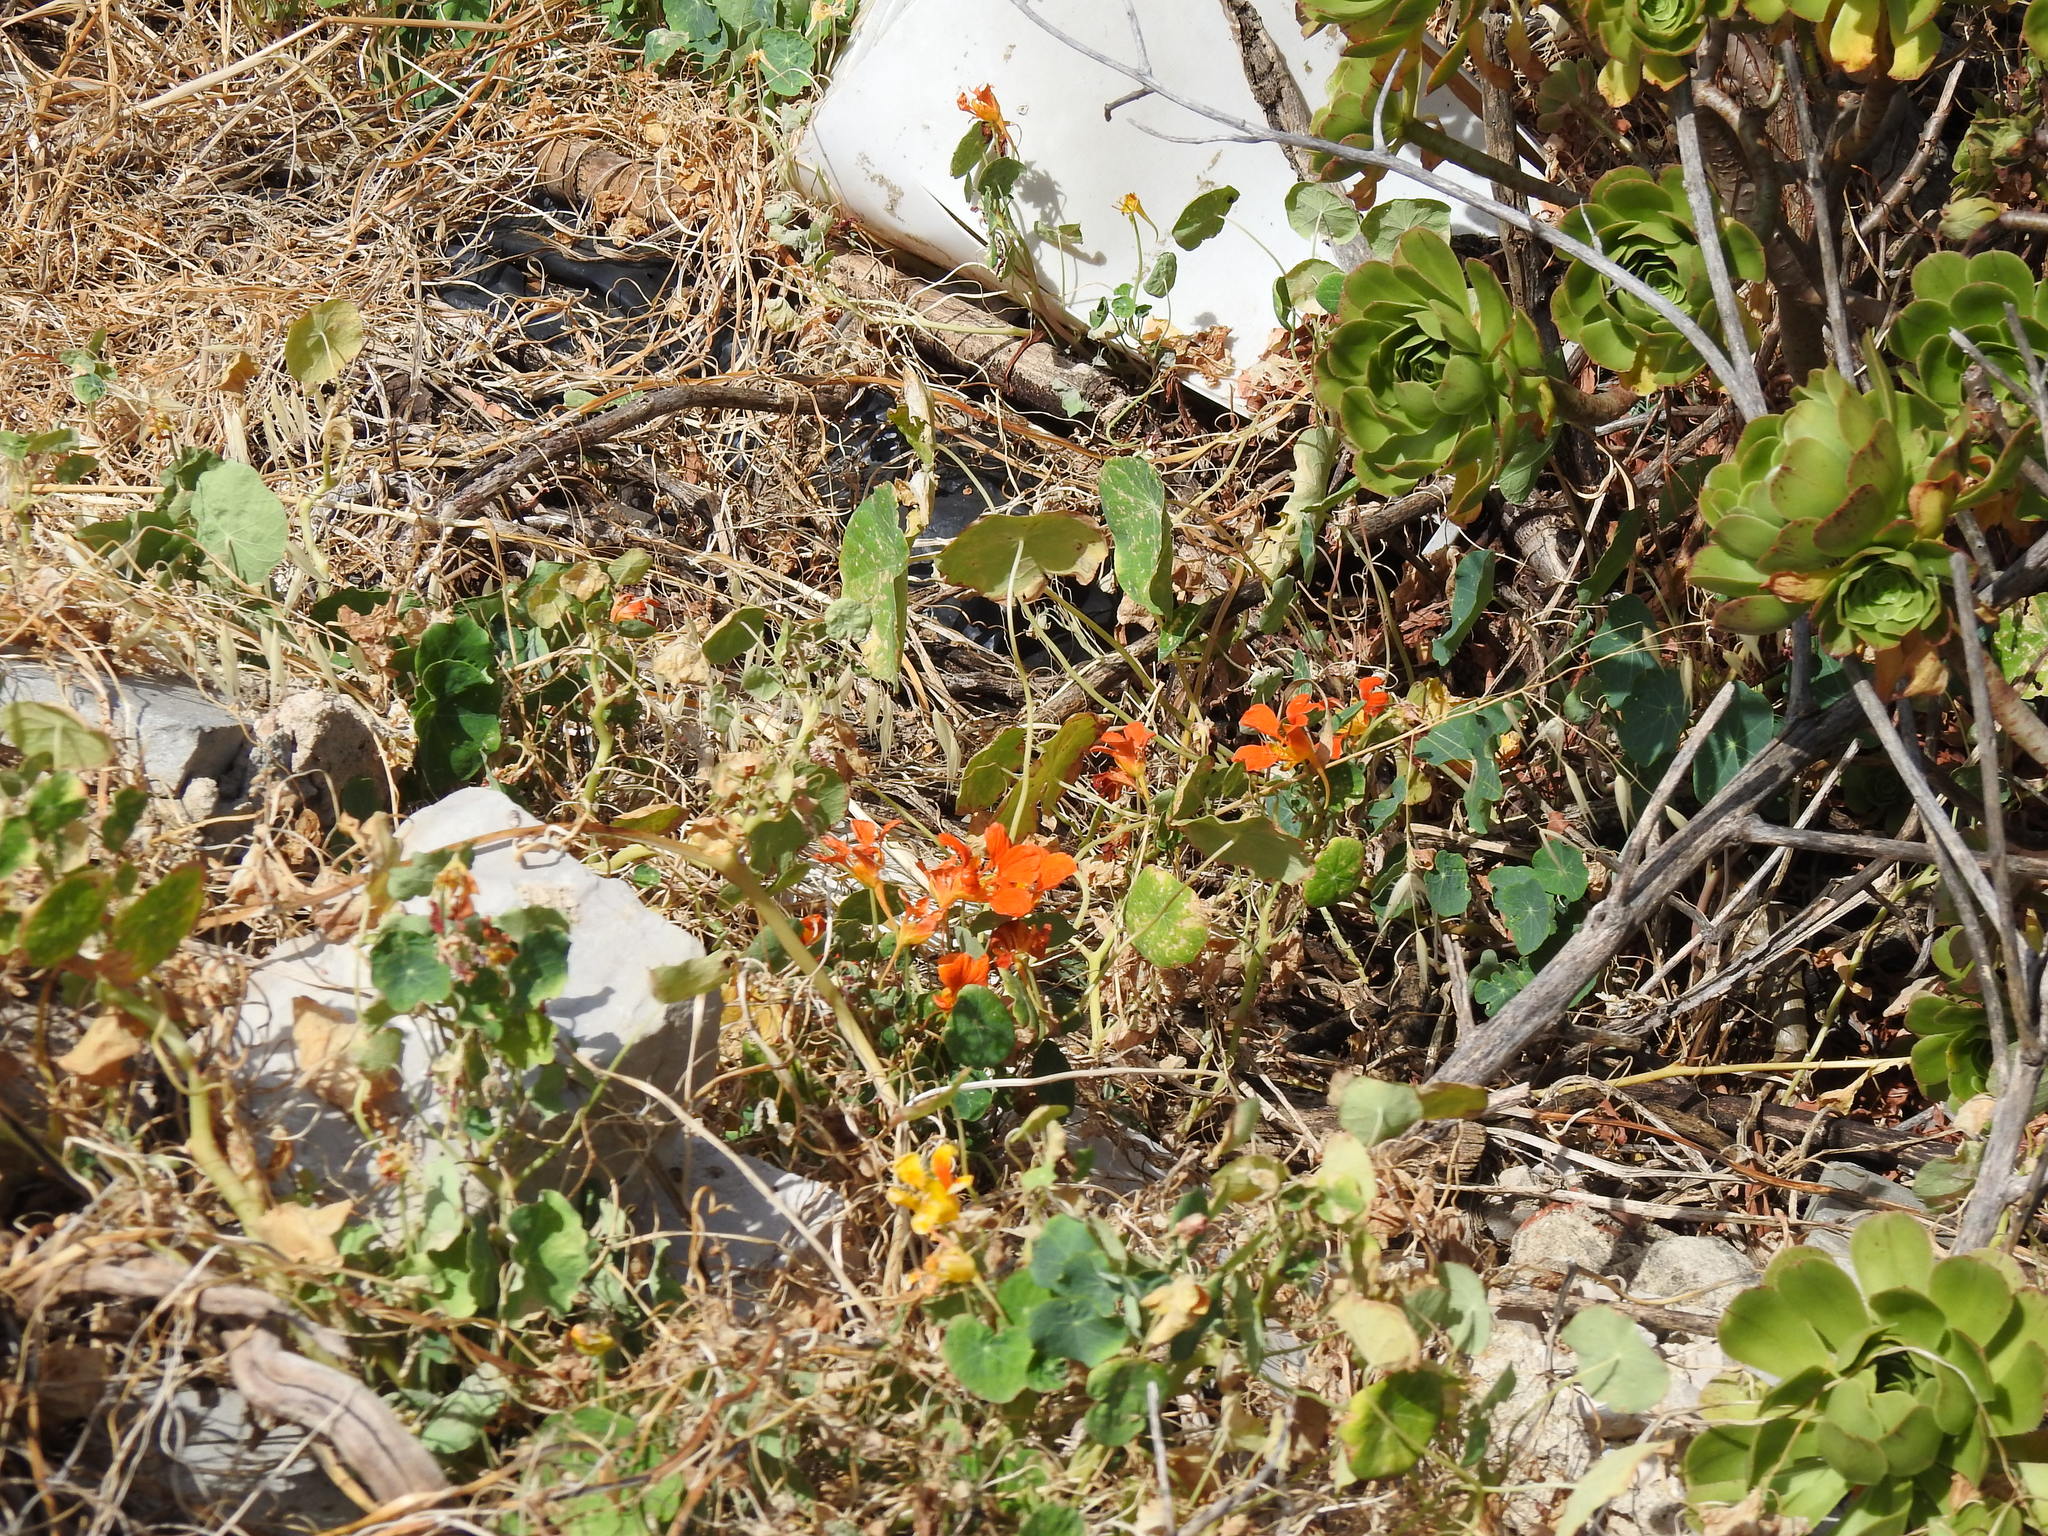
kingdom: Plantae
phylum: Tracheophyta
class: Magnoliopsida
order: Brassicales
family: Tropaeolaceae
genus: Tropaeolum
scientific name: Tropaeolum majus
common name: Nasturtium
